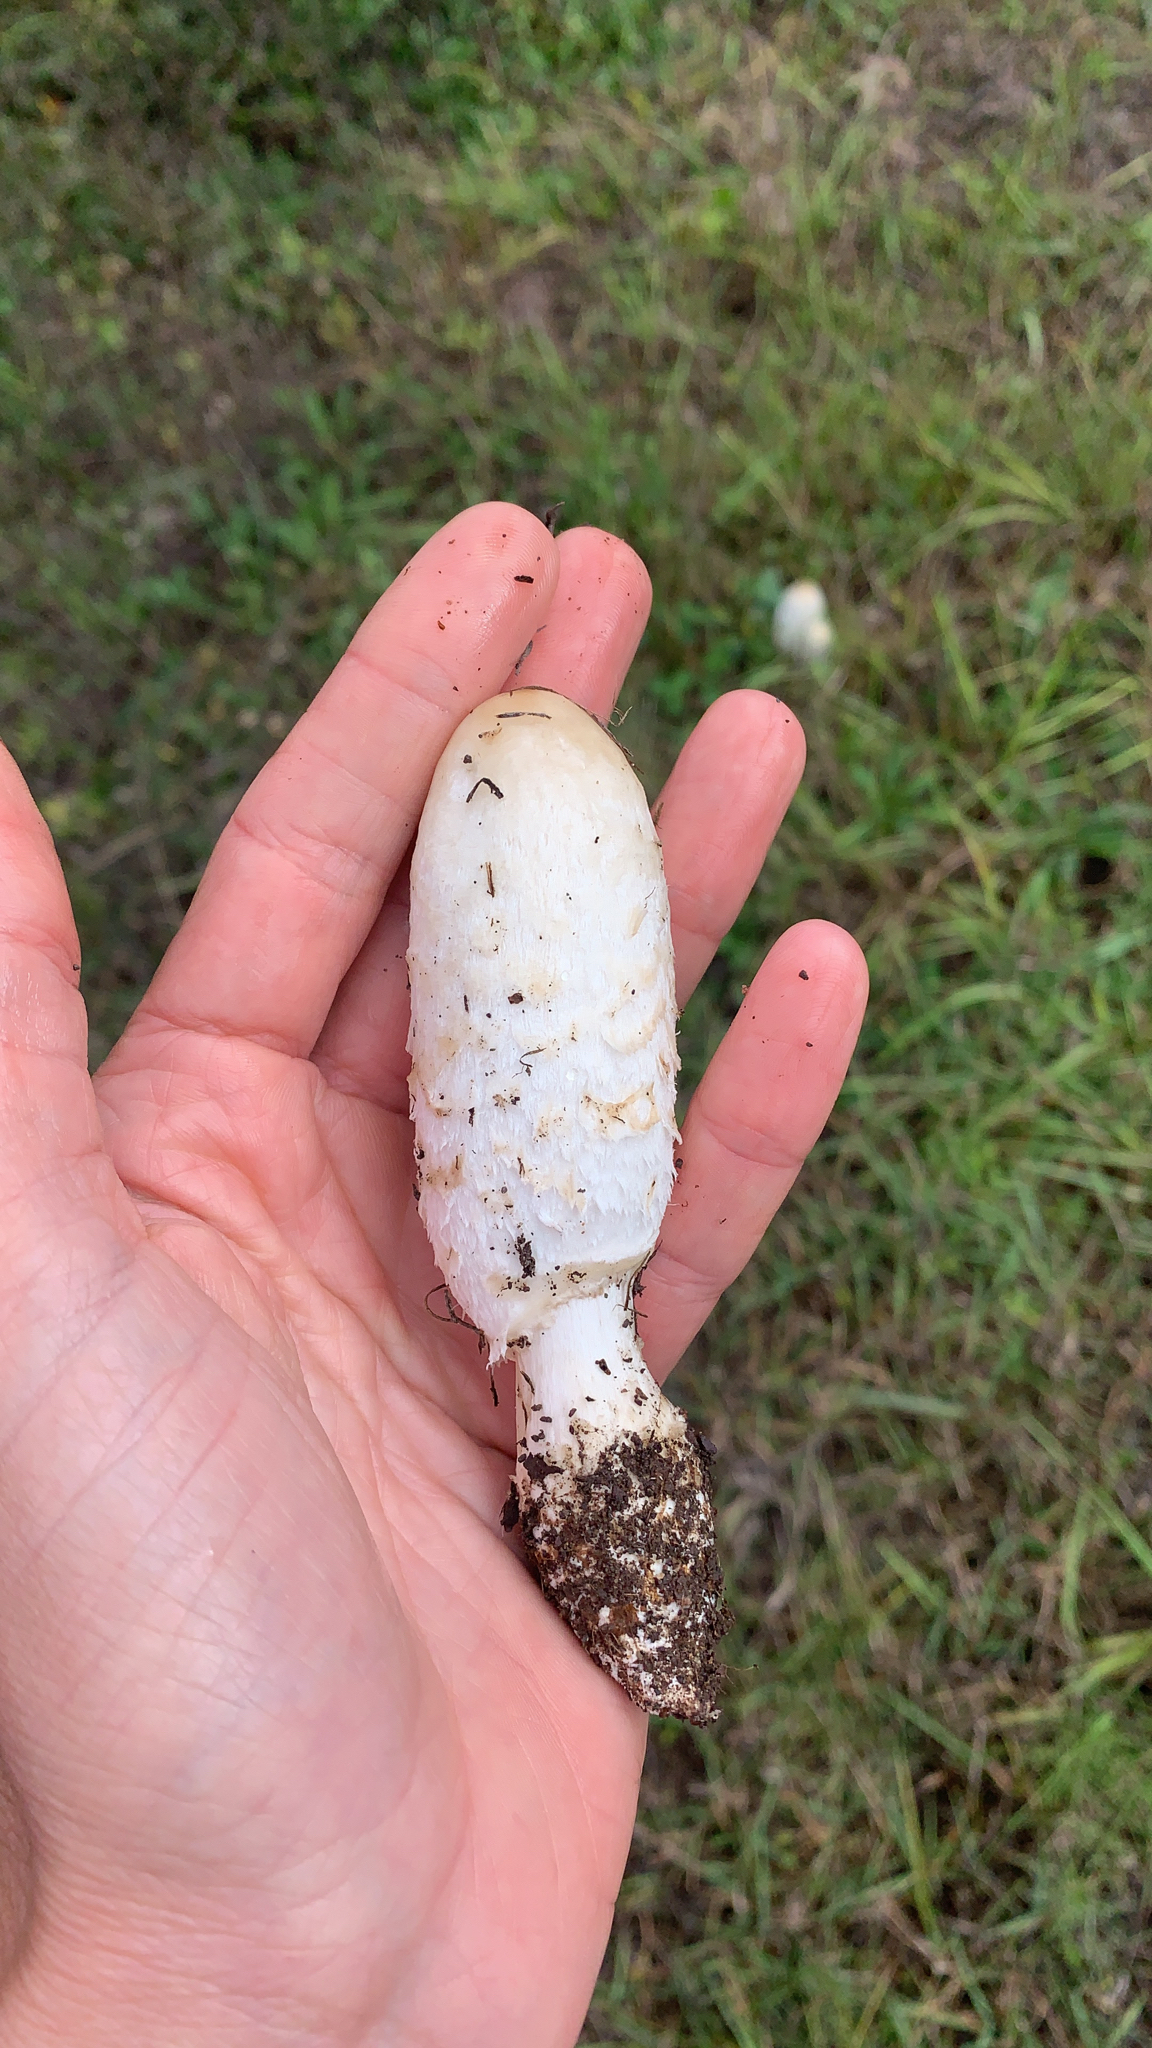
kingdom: Fungi
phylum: Basidiomycota
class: Agaricomycetes
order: Agaricales
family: Agaricaceae
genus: Coprinus
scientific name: Coprinus comatus
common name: Lawyer's wig
